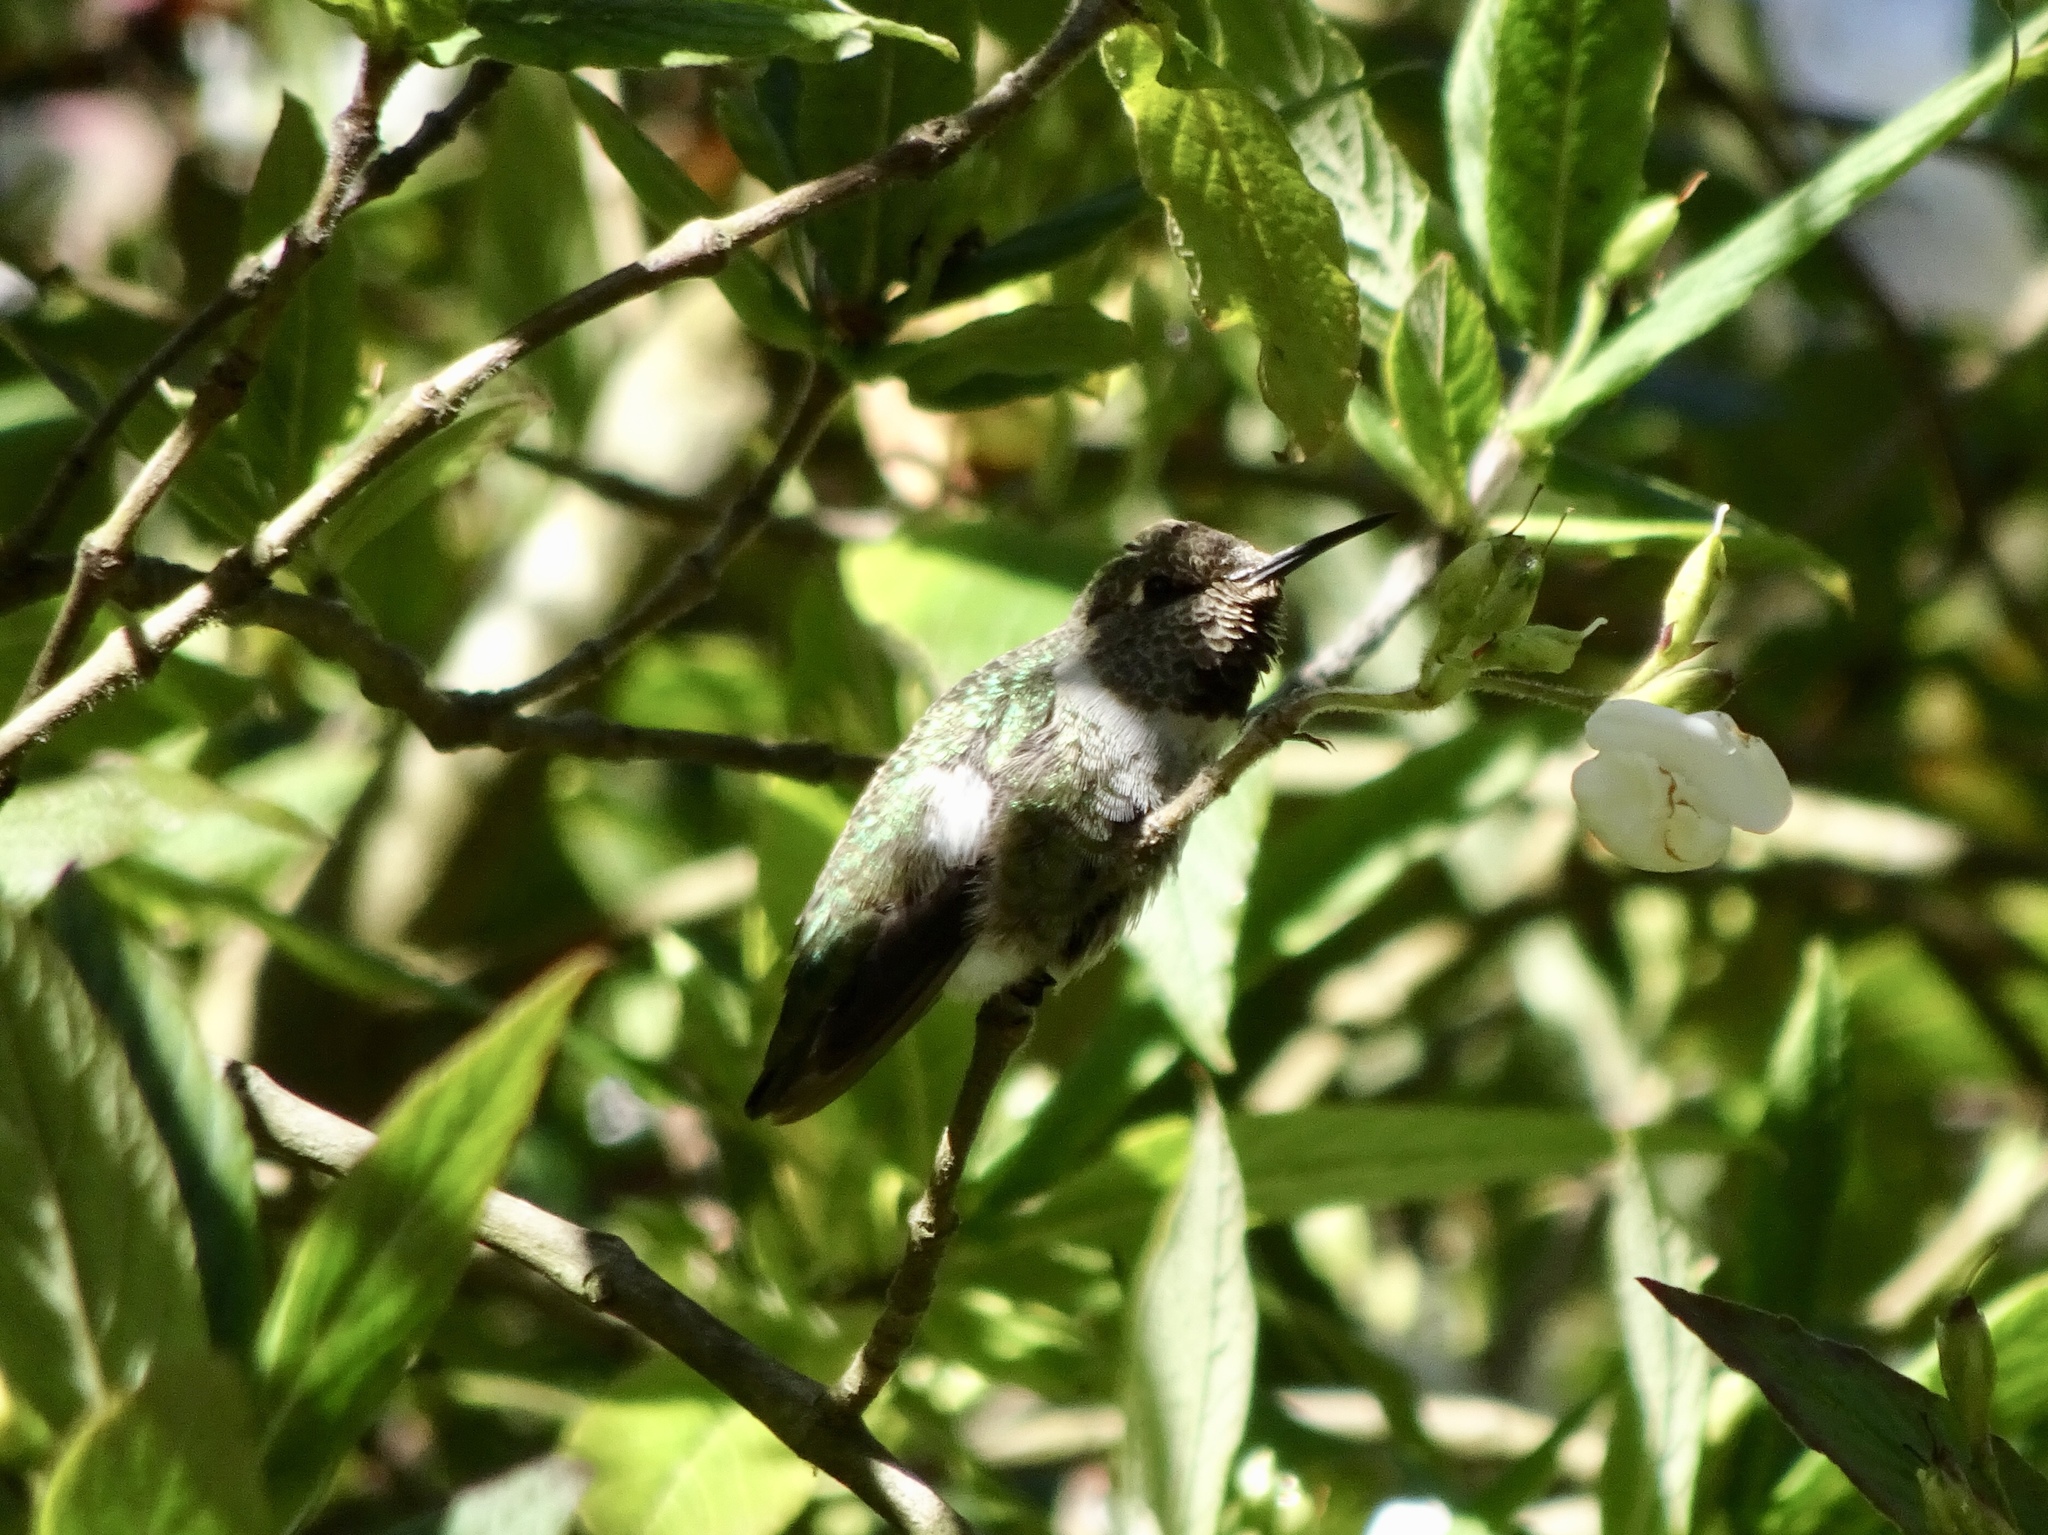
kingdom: Animalia
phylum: Chordata
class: Aves
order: Apodiformes
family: Trochilidae
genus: Calypte
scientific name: Calypte anna
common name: Anna's hummingbird
